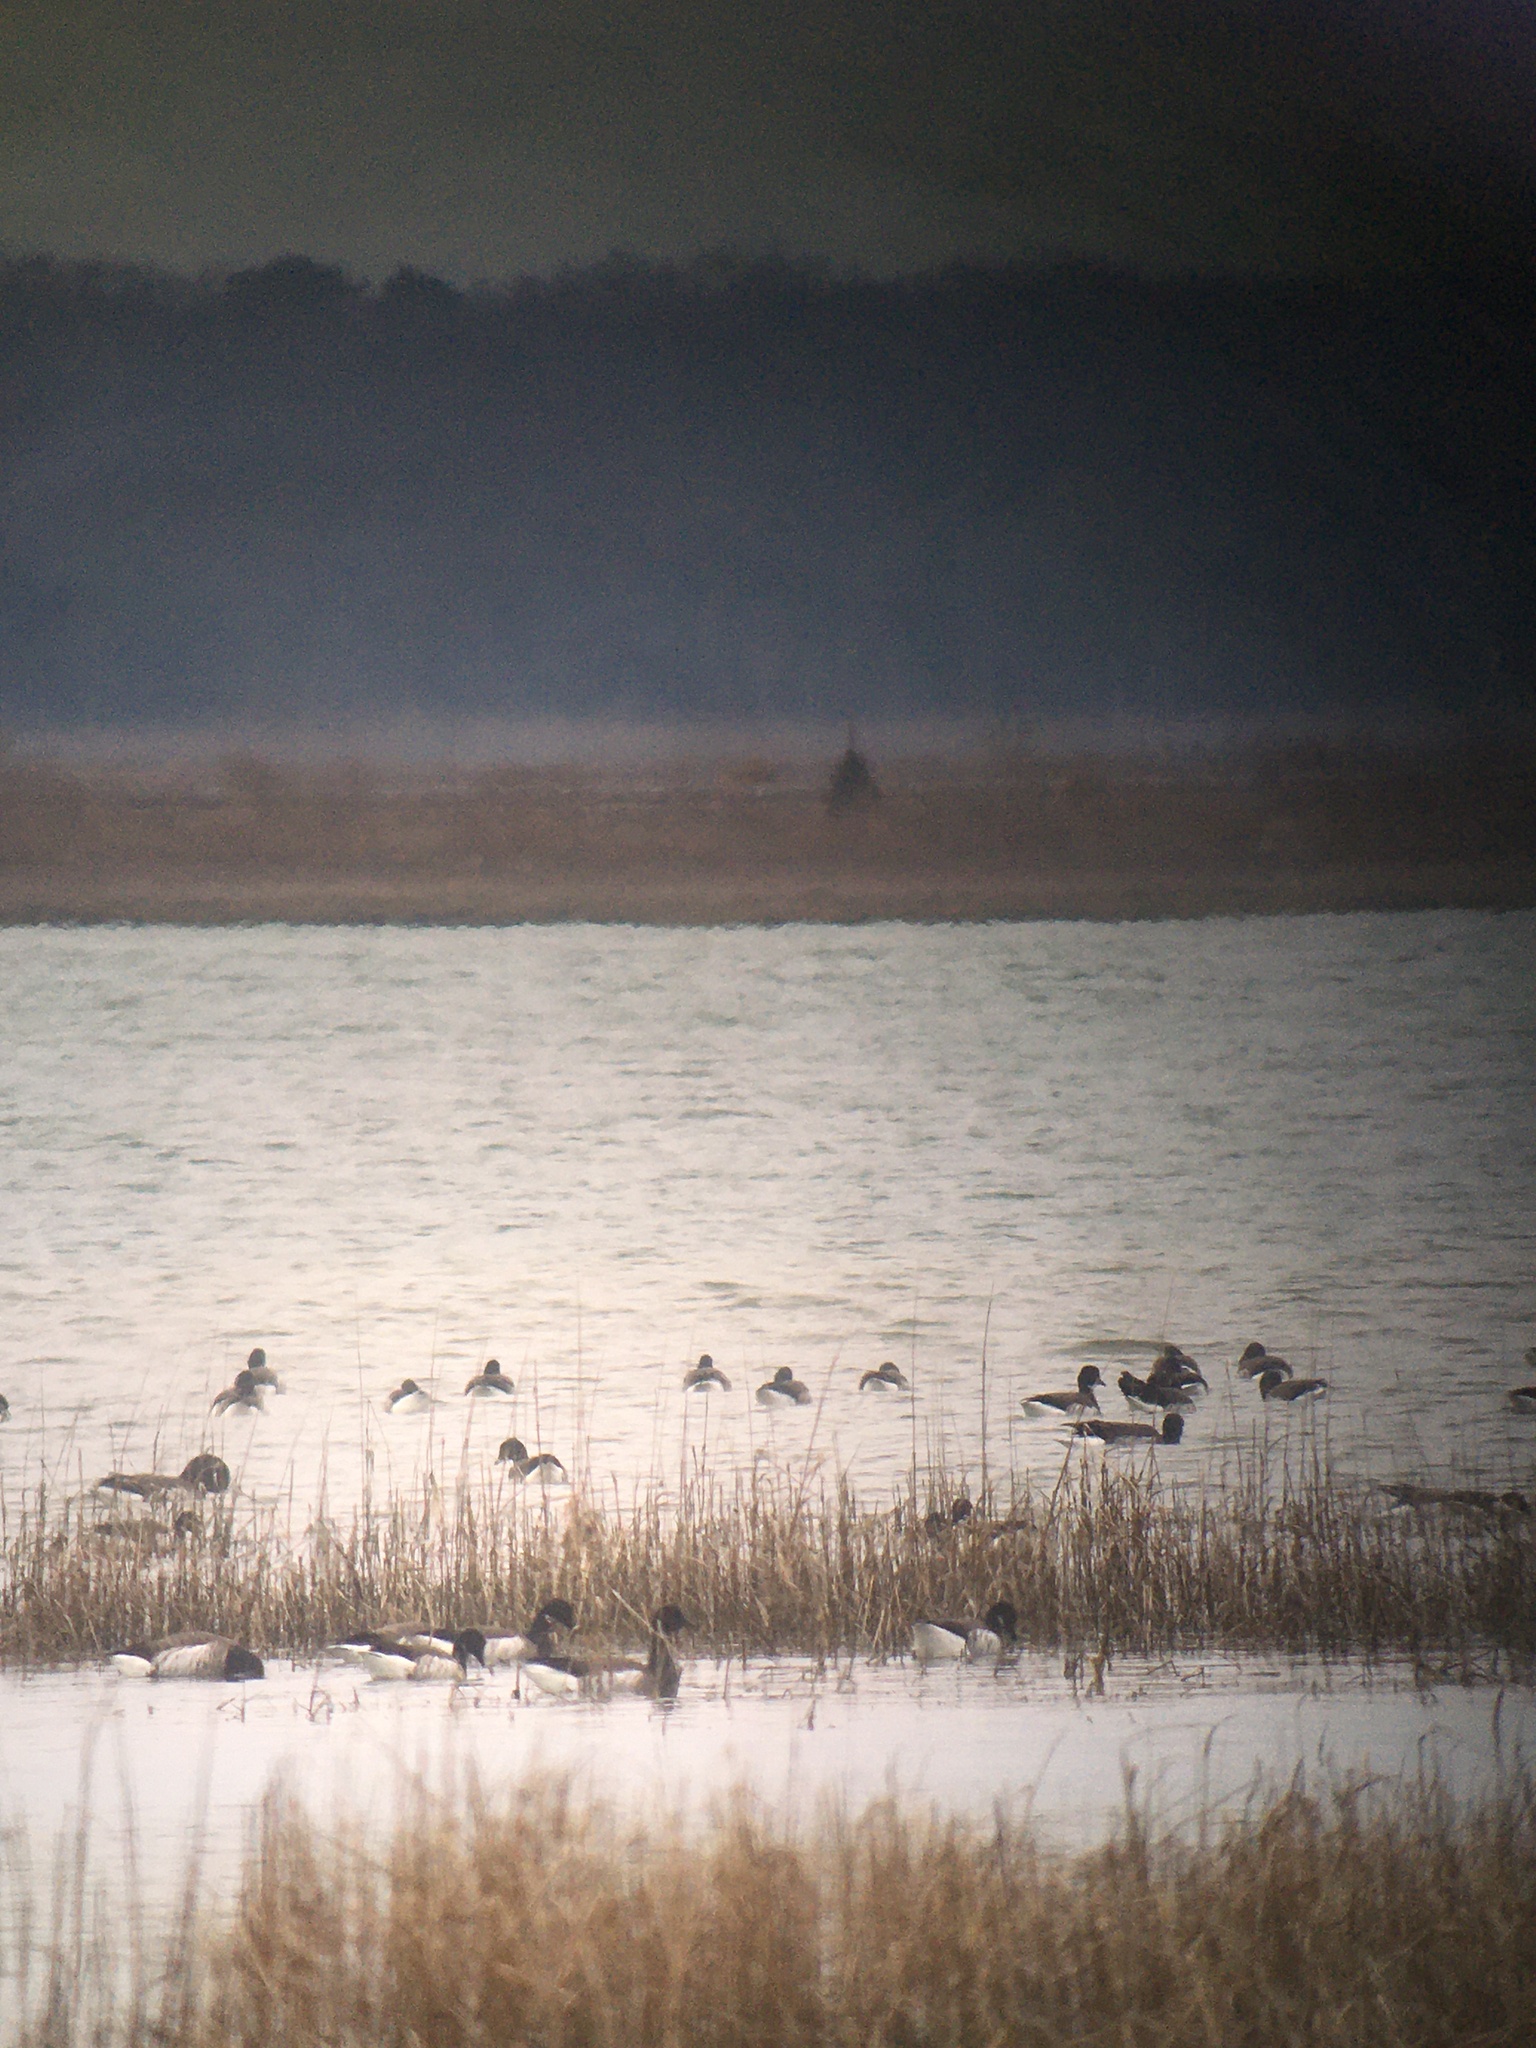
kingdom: Animalia
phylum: Chordata
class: Aves
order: Anseriformes
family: Anatidae
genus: Branta
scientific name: Branta bernicla
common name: Brant goose
